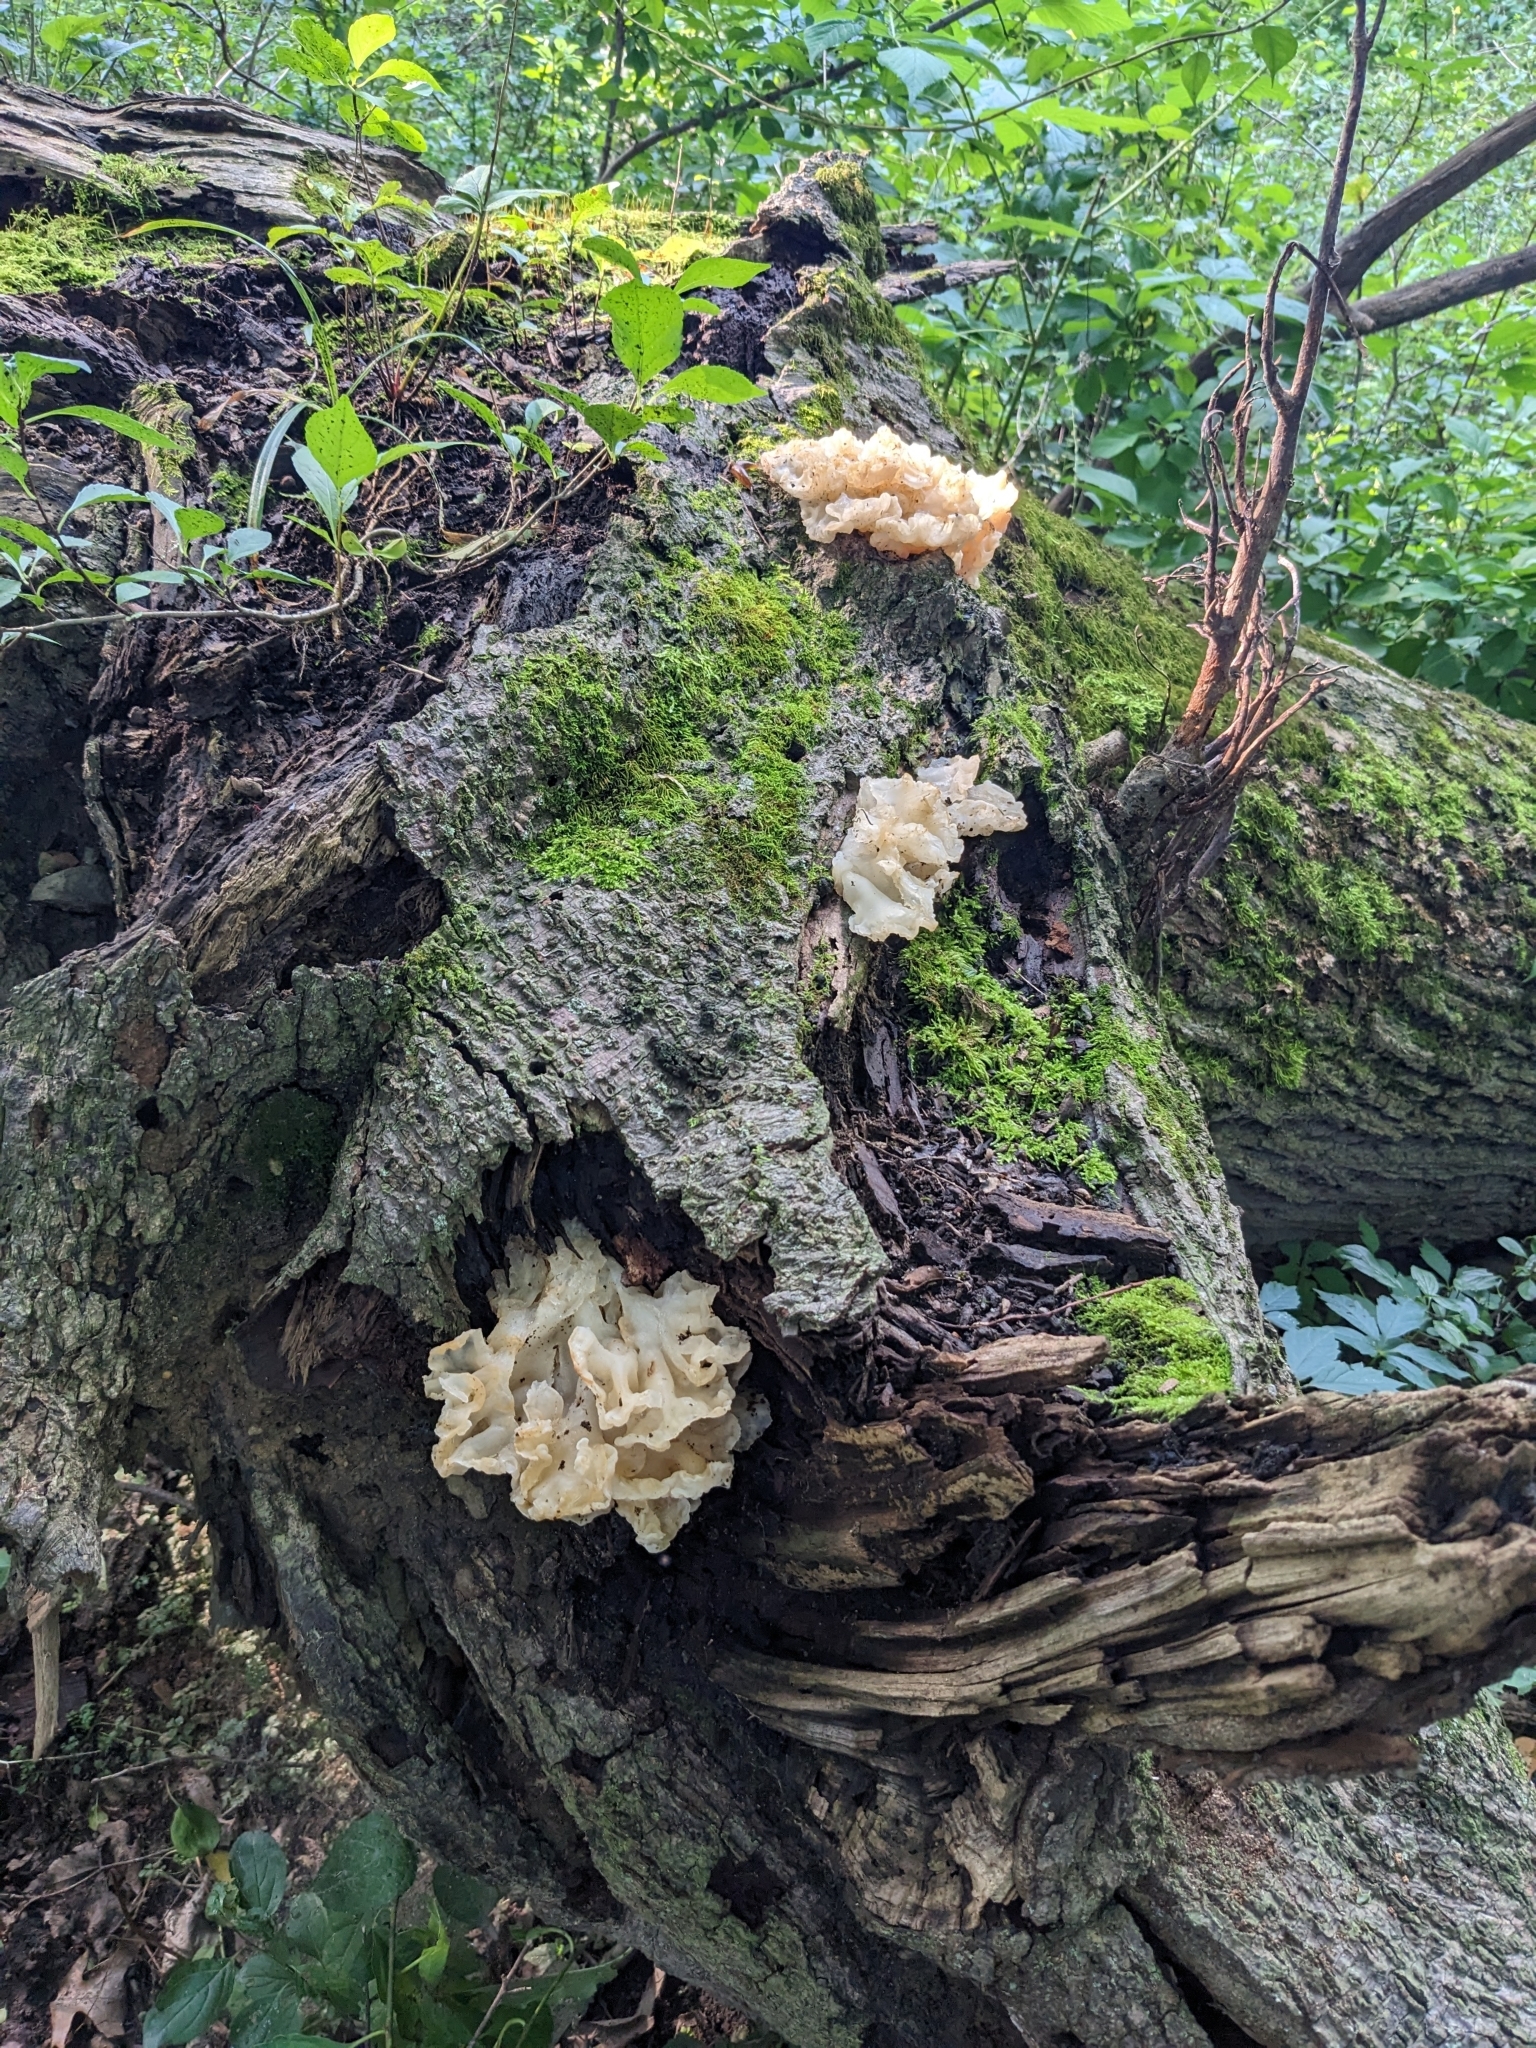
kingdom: Fungi
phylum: Basidiomycota
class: Agaricomycetes
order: Auriculariales
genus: Ductifera
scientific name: Ductifera pululahuana
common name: White jelly fungus
